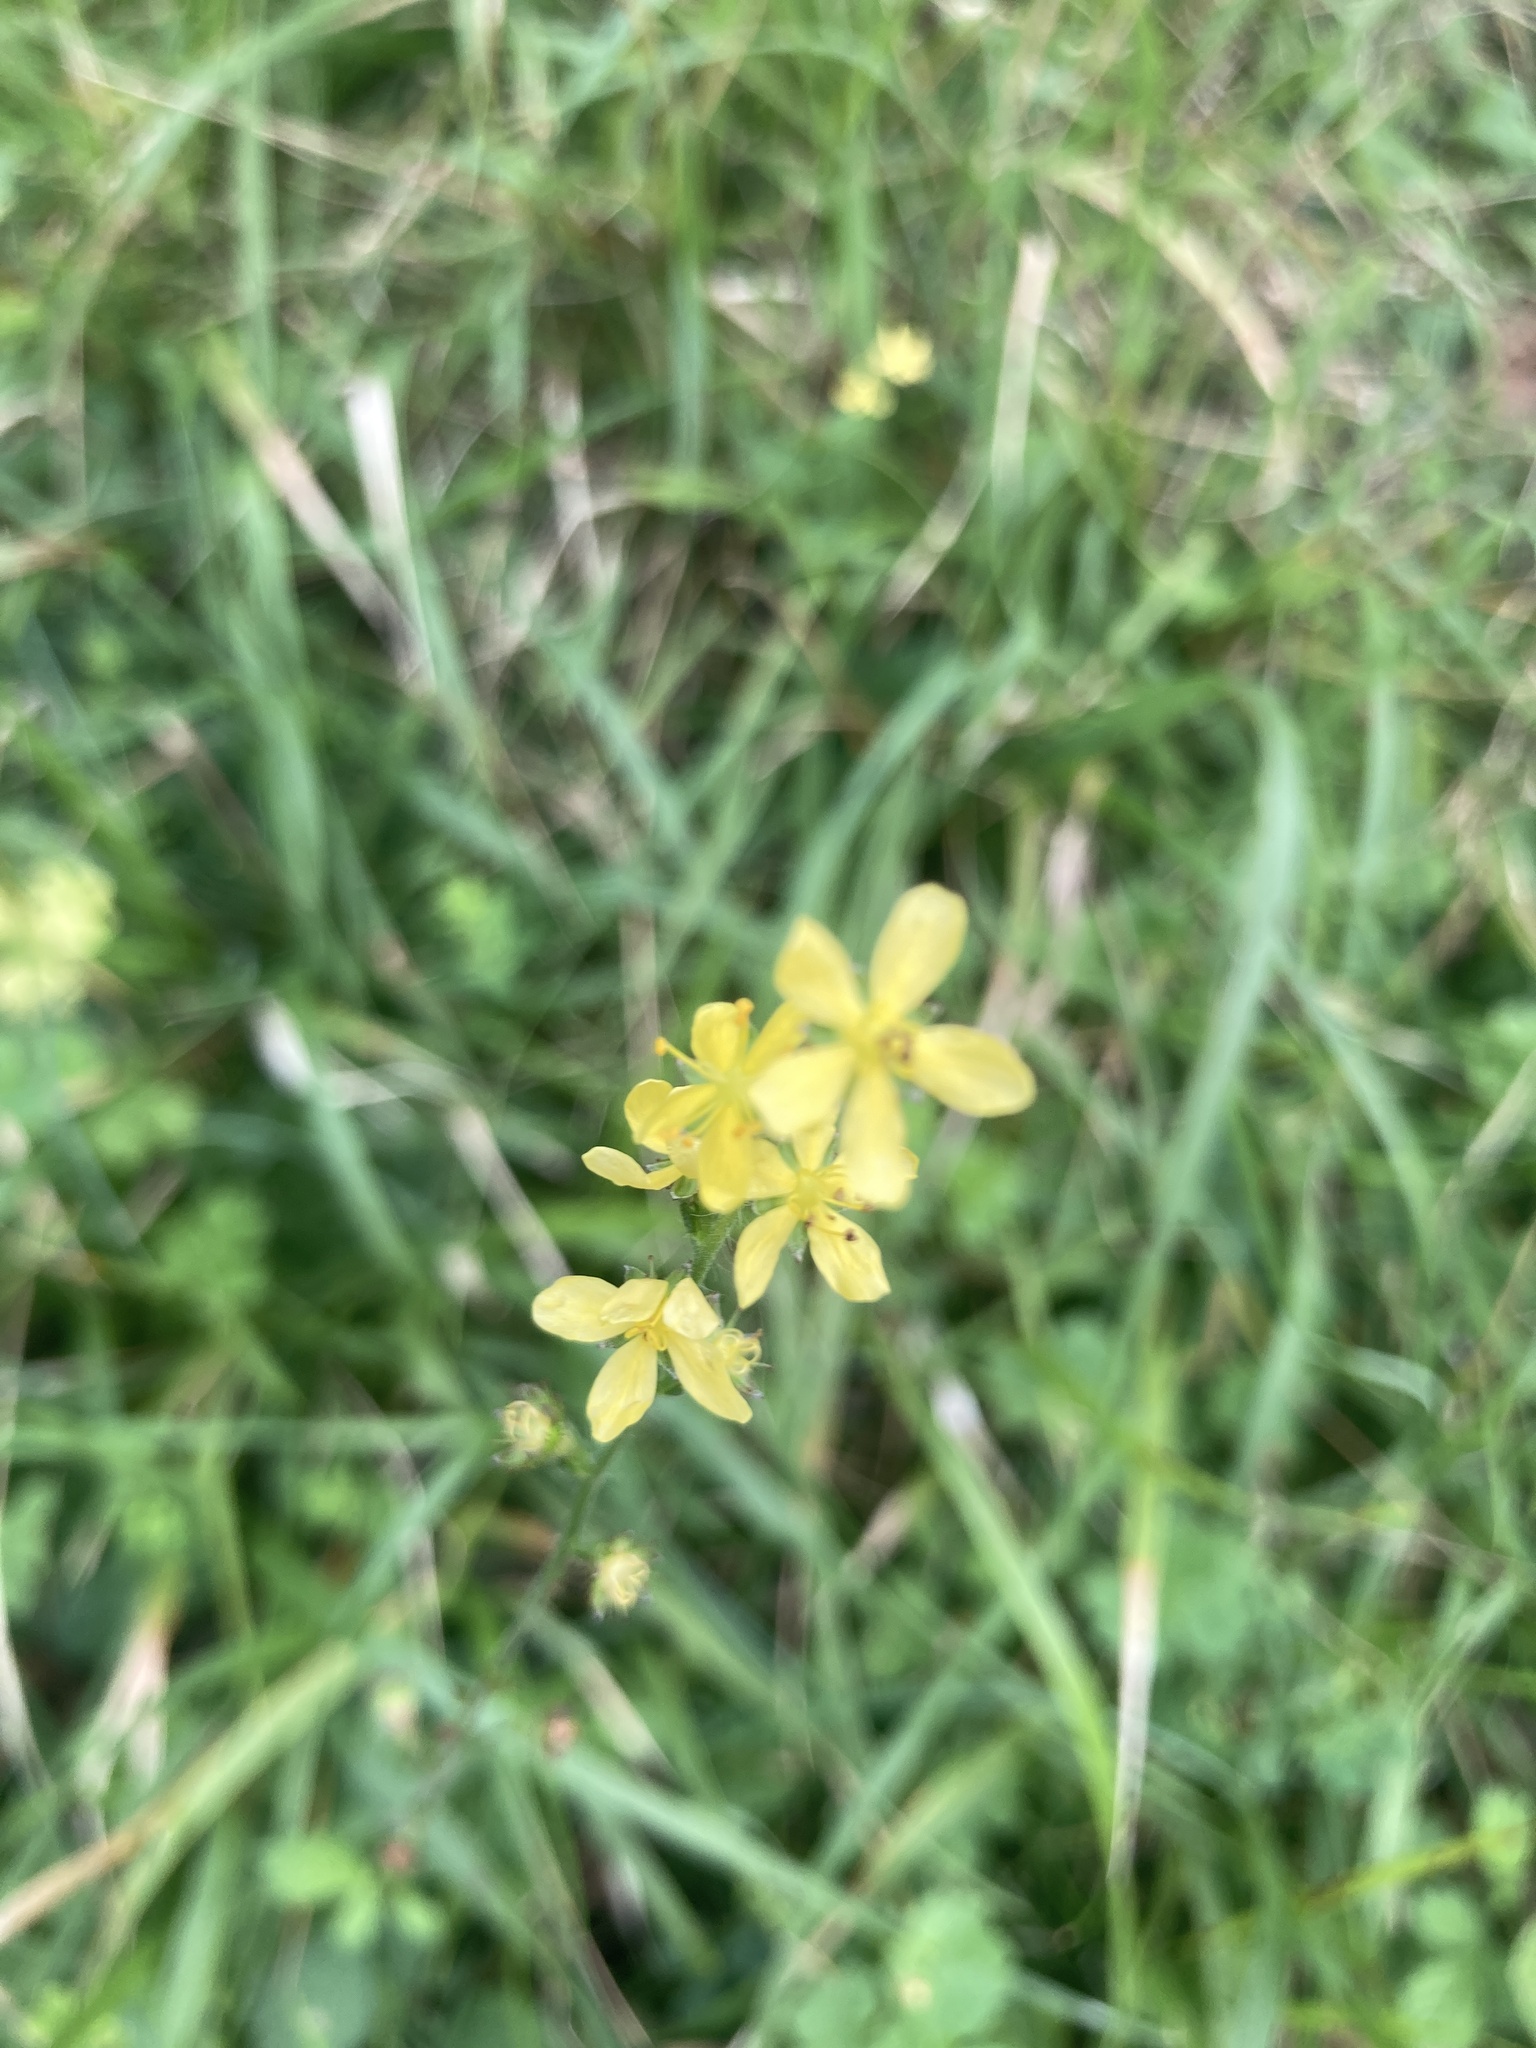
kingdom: Plantae
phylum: Tracheophyta
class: Magnoliopsida
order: Rosales
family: Rosaceae
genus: Agrimonia
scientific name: Agrimonia eupatoria
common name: Agrimony
